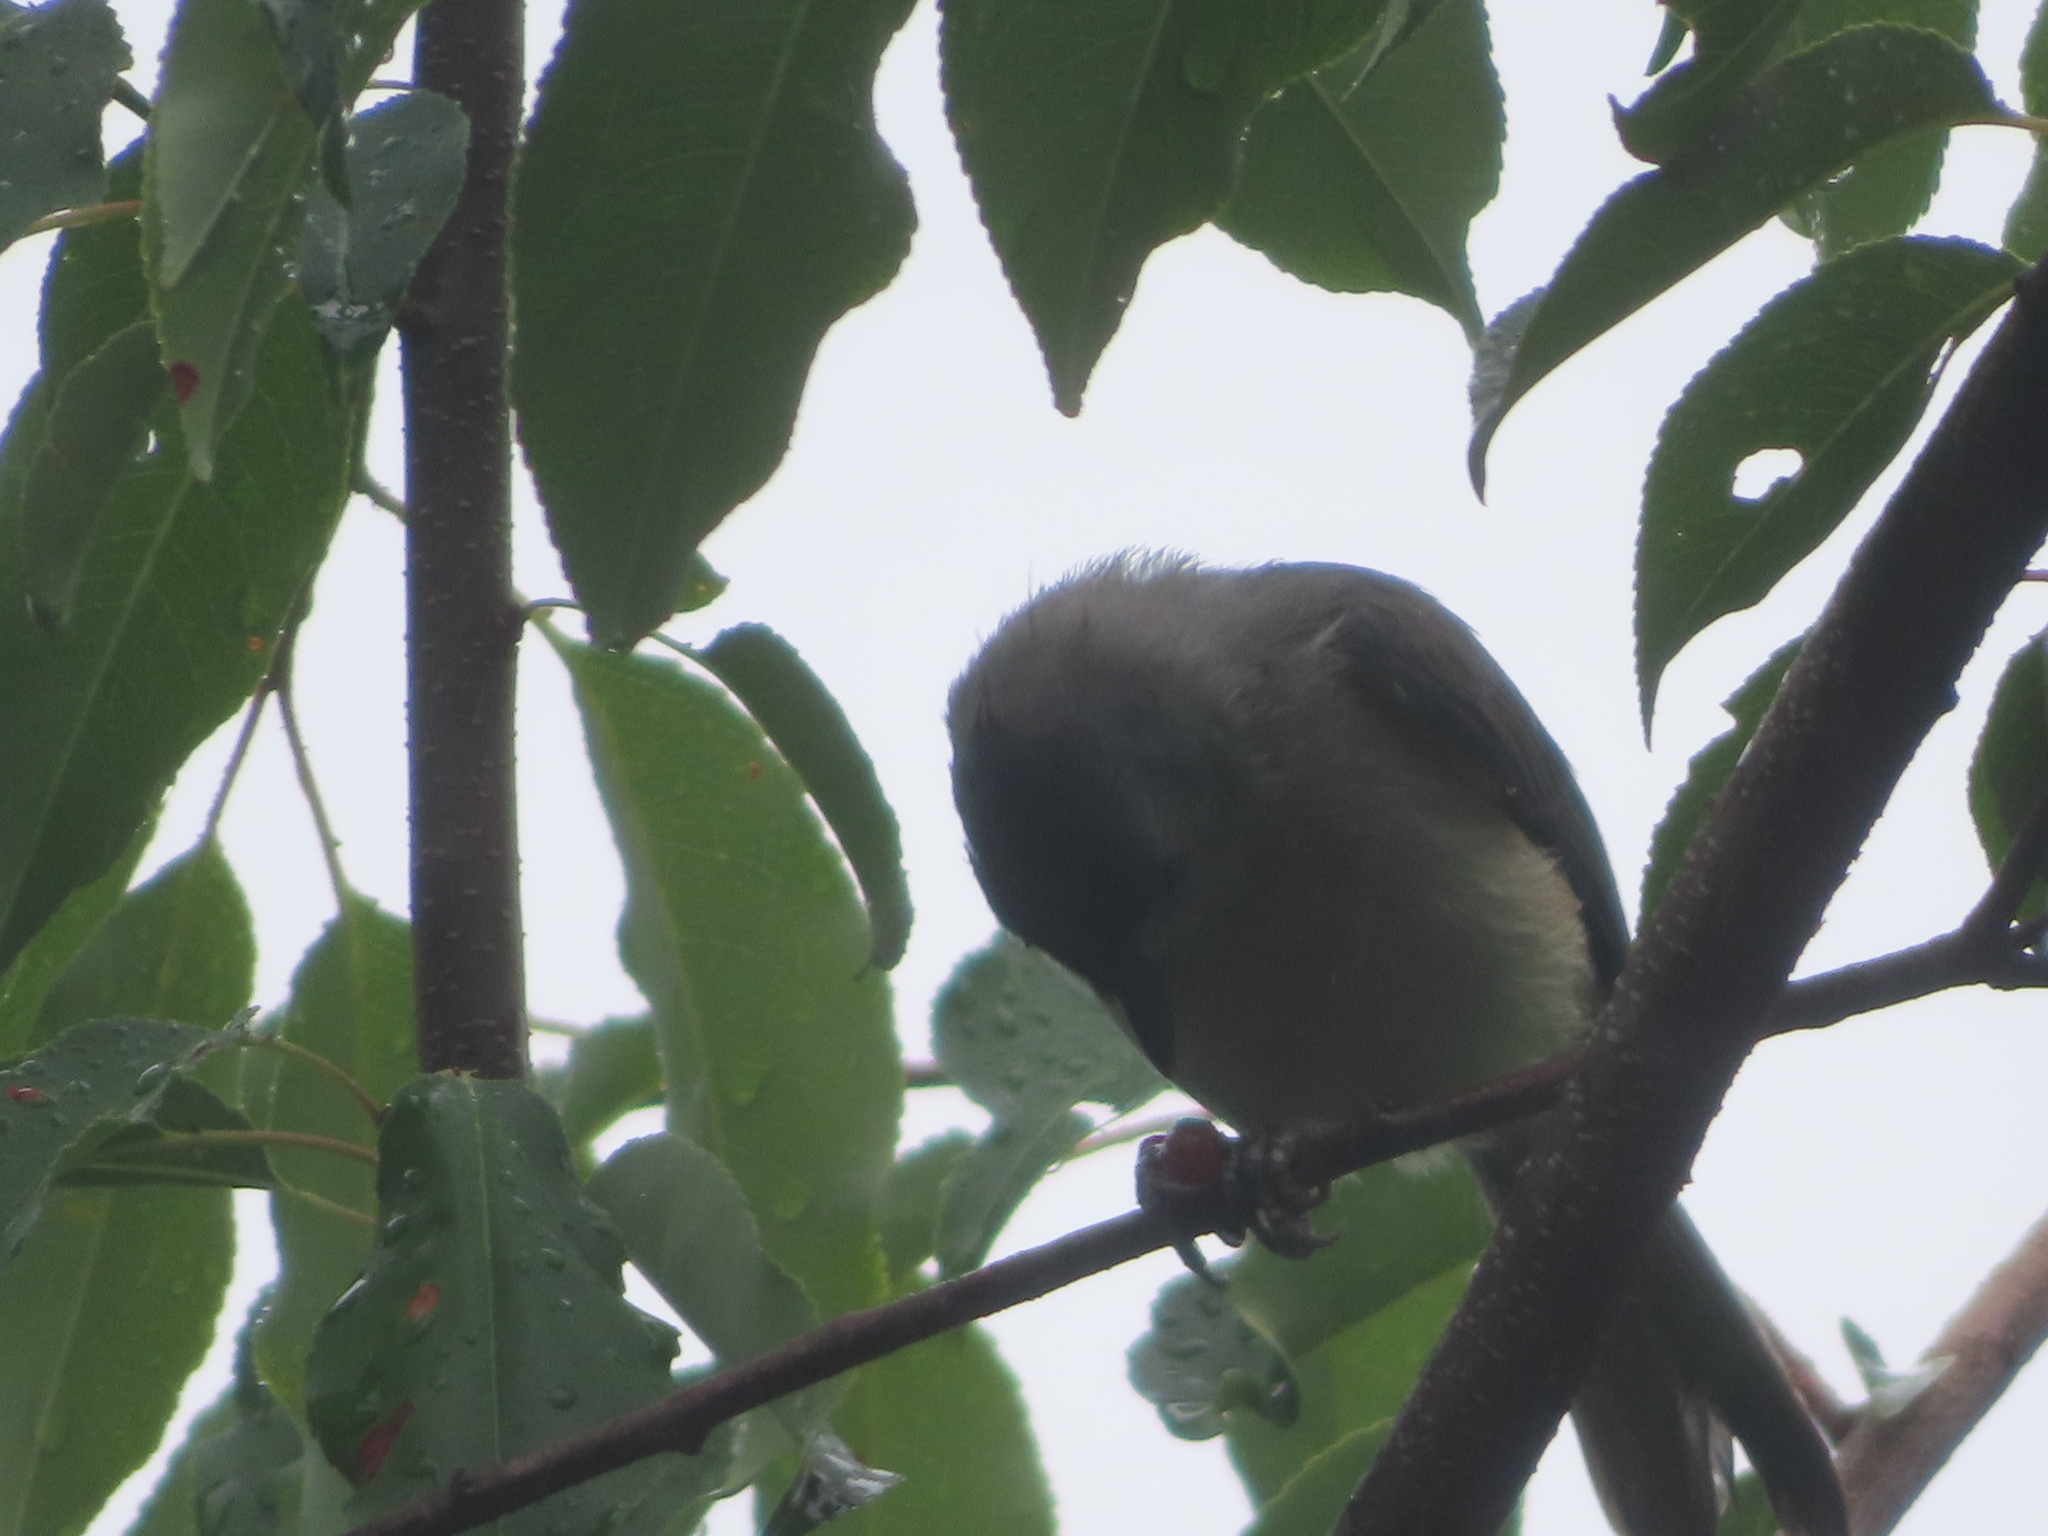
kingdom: Animalia
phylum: Chordata
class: Aves
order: Passeriformes
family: Paridae
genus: Baeolophus
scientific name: Baeolophus bicolor
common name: Tufted titmouse
